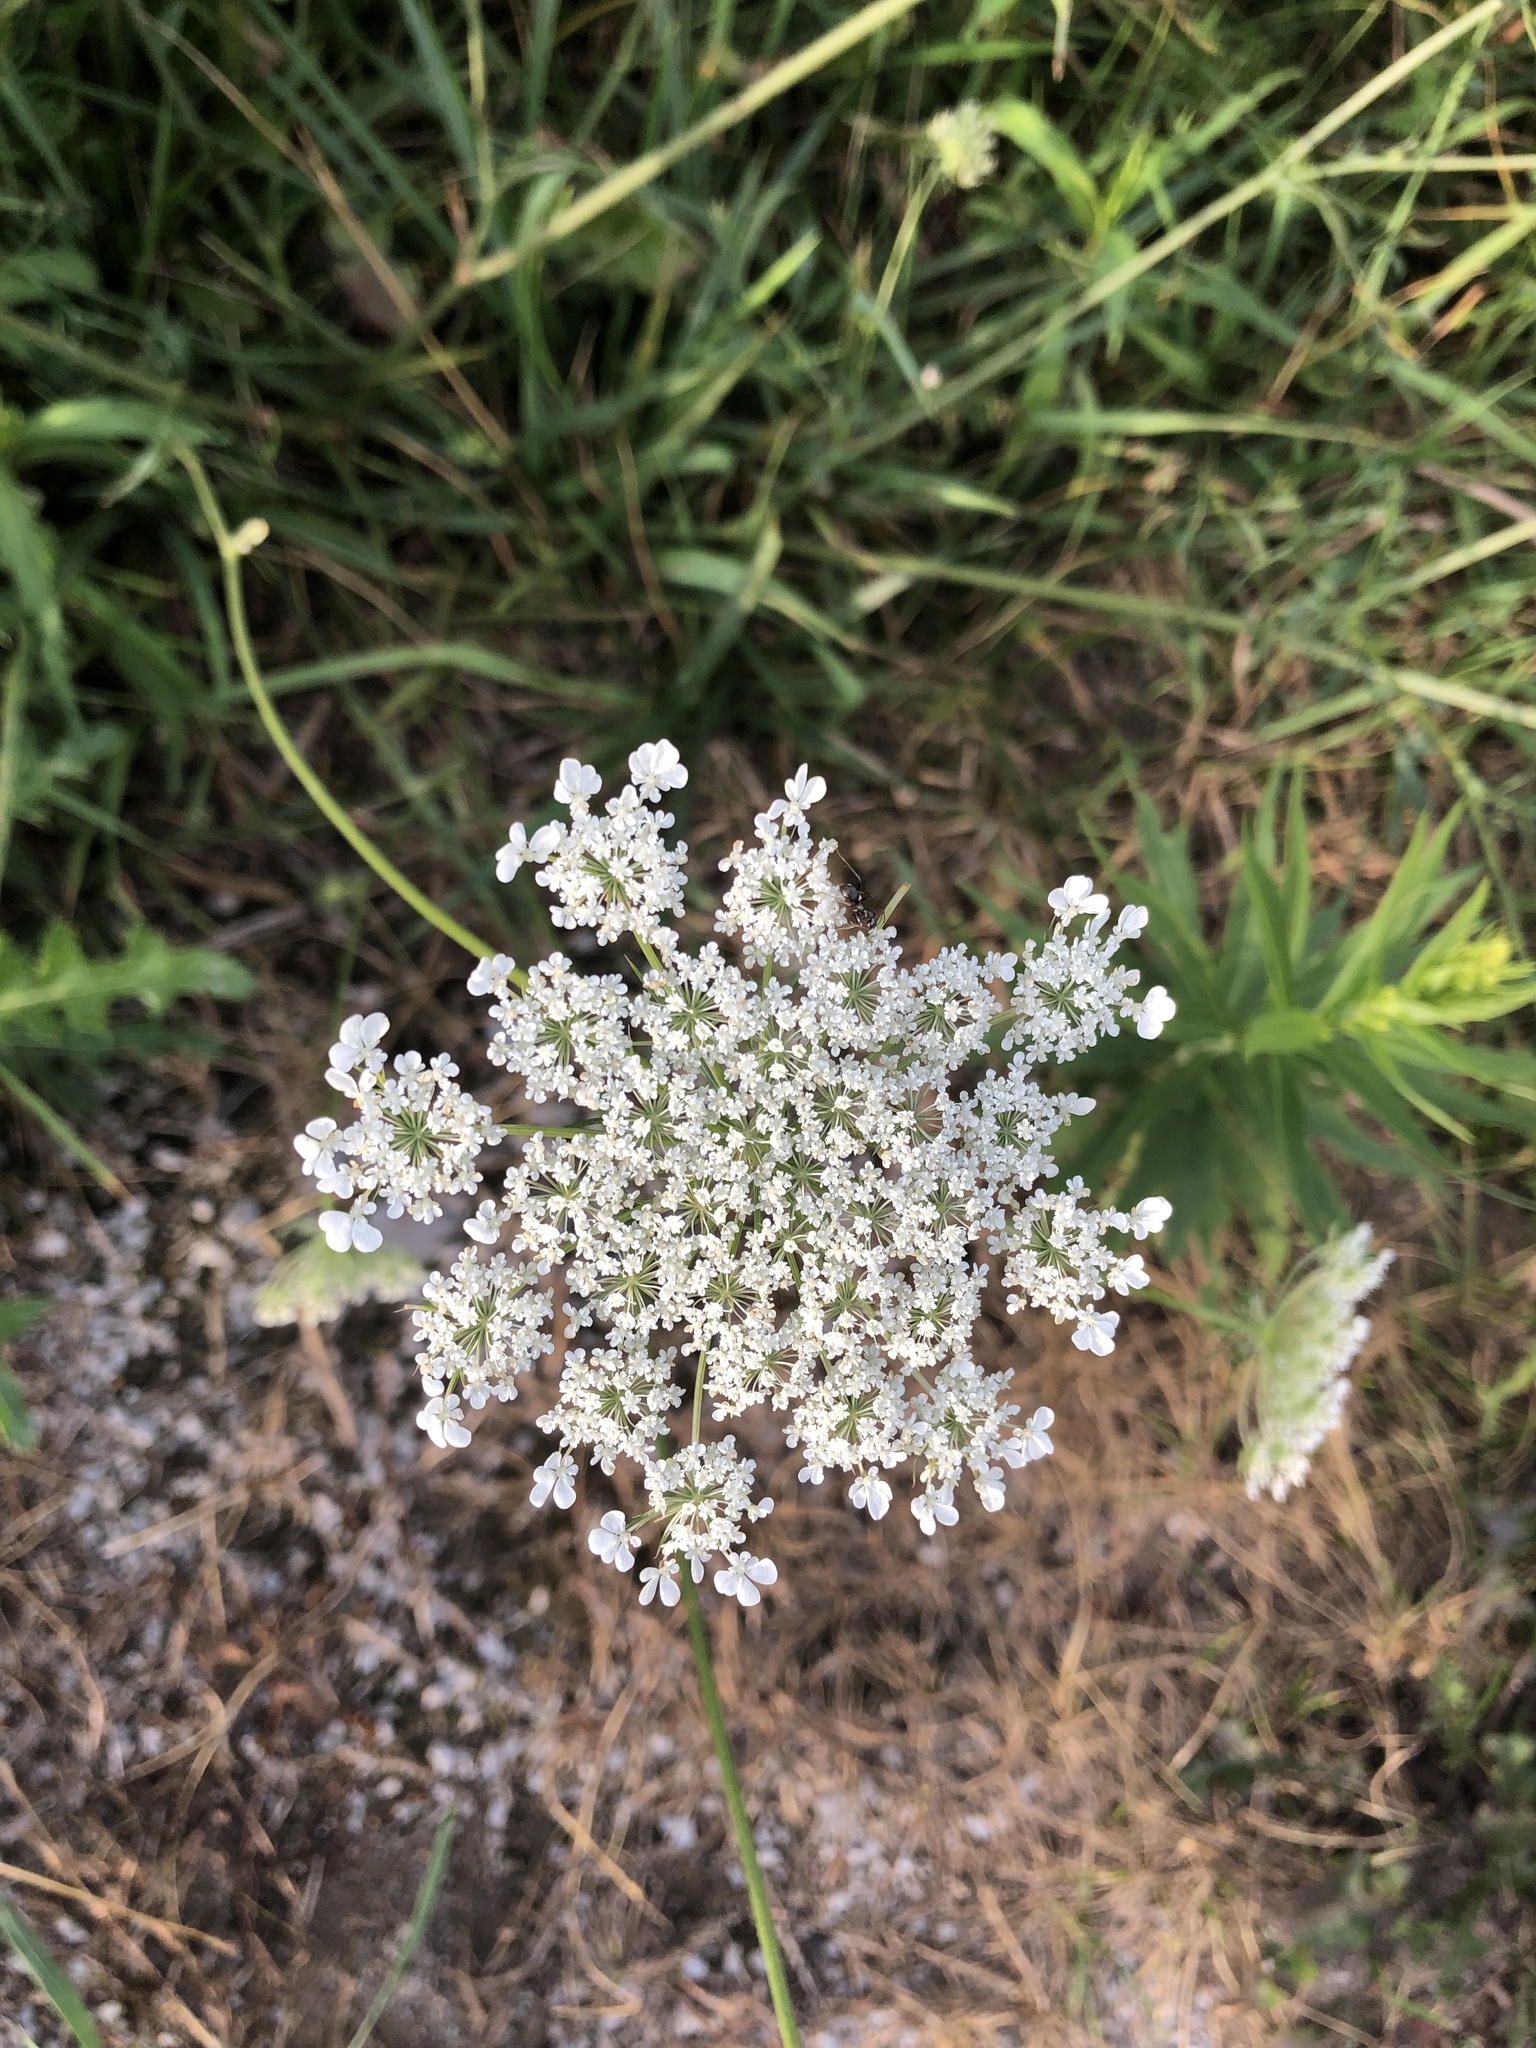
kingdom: Plantae
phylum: Tracheophyta
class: Magnoliopsida
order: Apiales
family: Apiaceae
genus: Daucus
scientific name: Daucus carota
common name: Wild carrot
